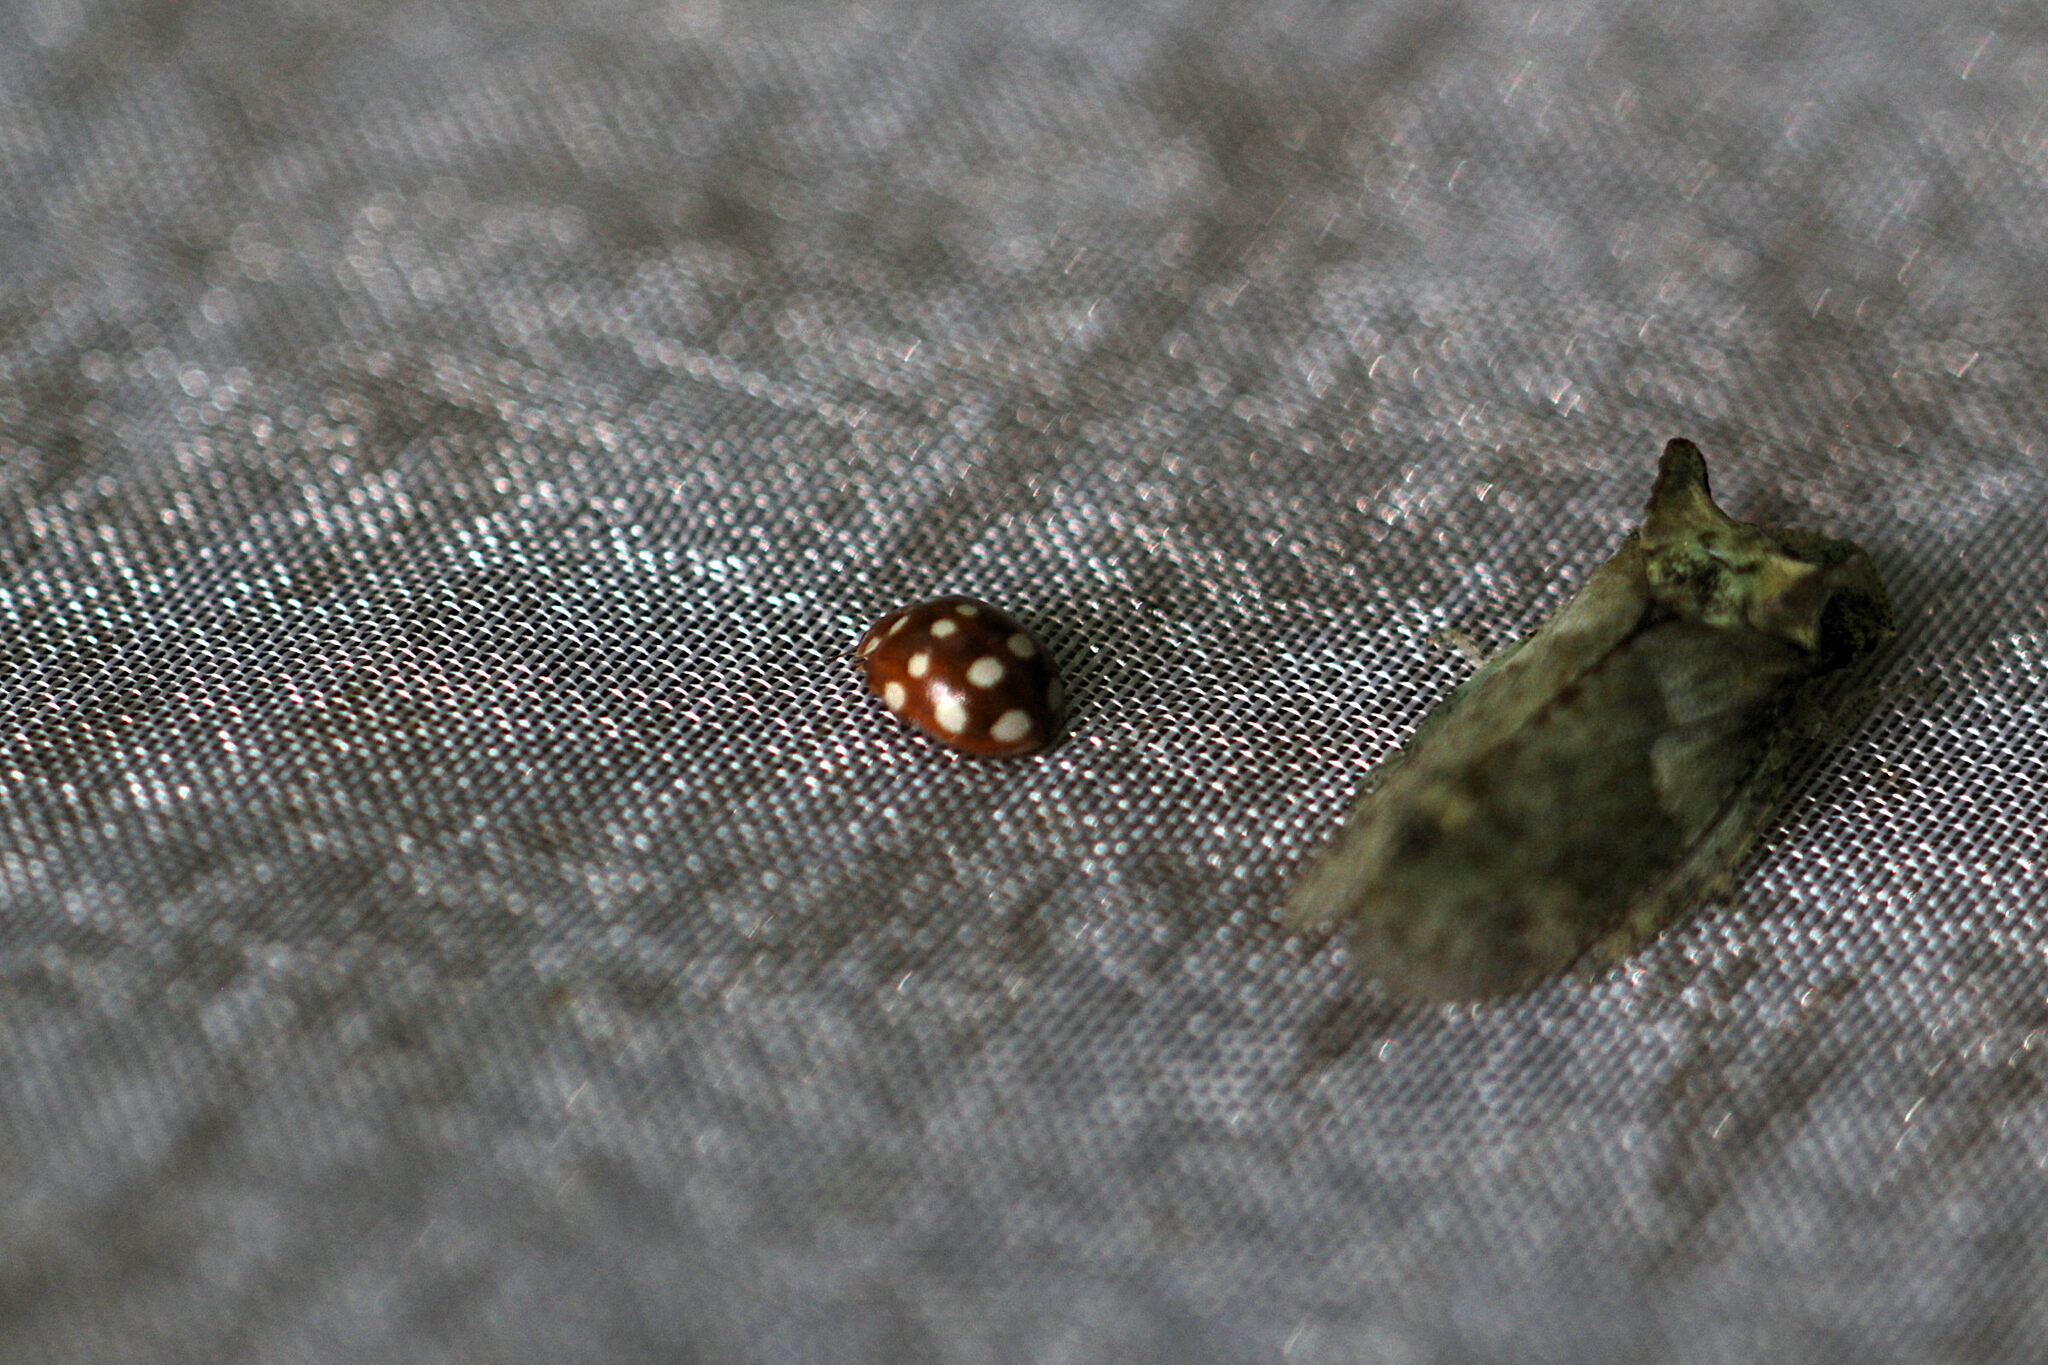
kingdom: Animalia
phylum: Arthropoda
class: Insecta
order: Hemiptera
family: Cicadellidae
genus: Ledra
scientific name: Ledra aurita
